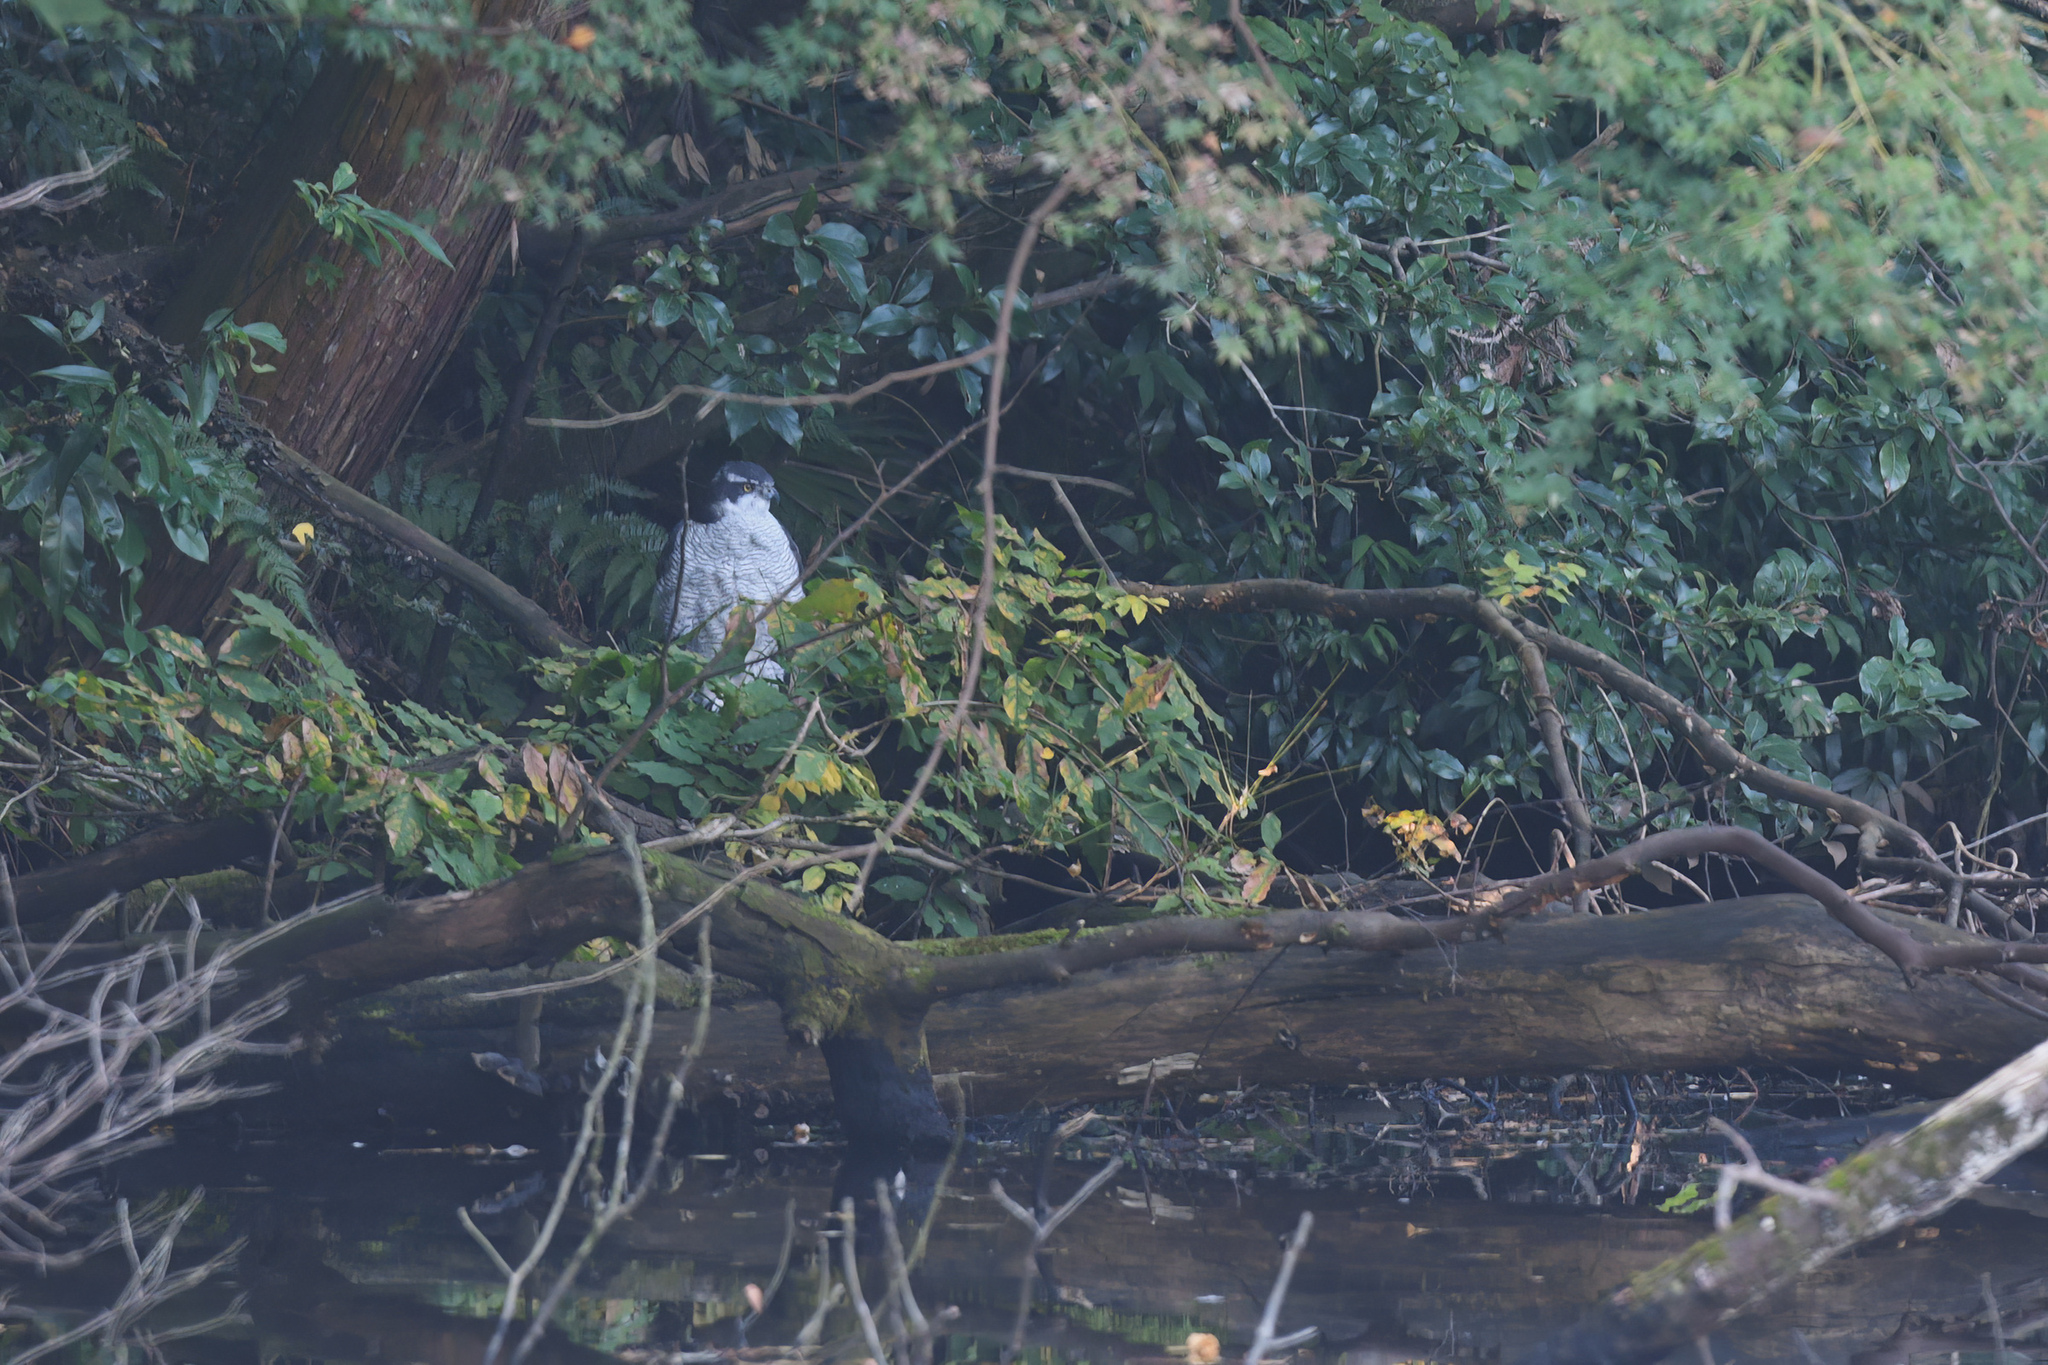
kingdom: Animalia
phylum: Chordata
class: Aves
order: Accipitriformes
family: Accipitridae
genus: Accipiter
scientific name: Accipiter gentilis
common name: Northern goshawk
